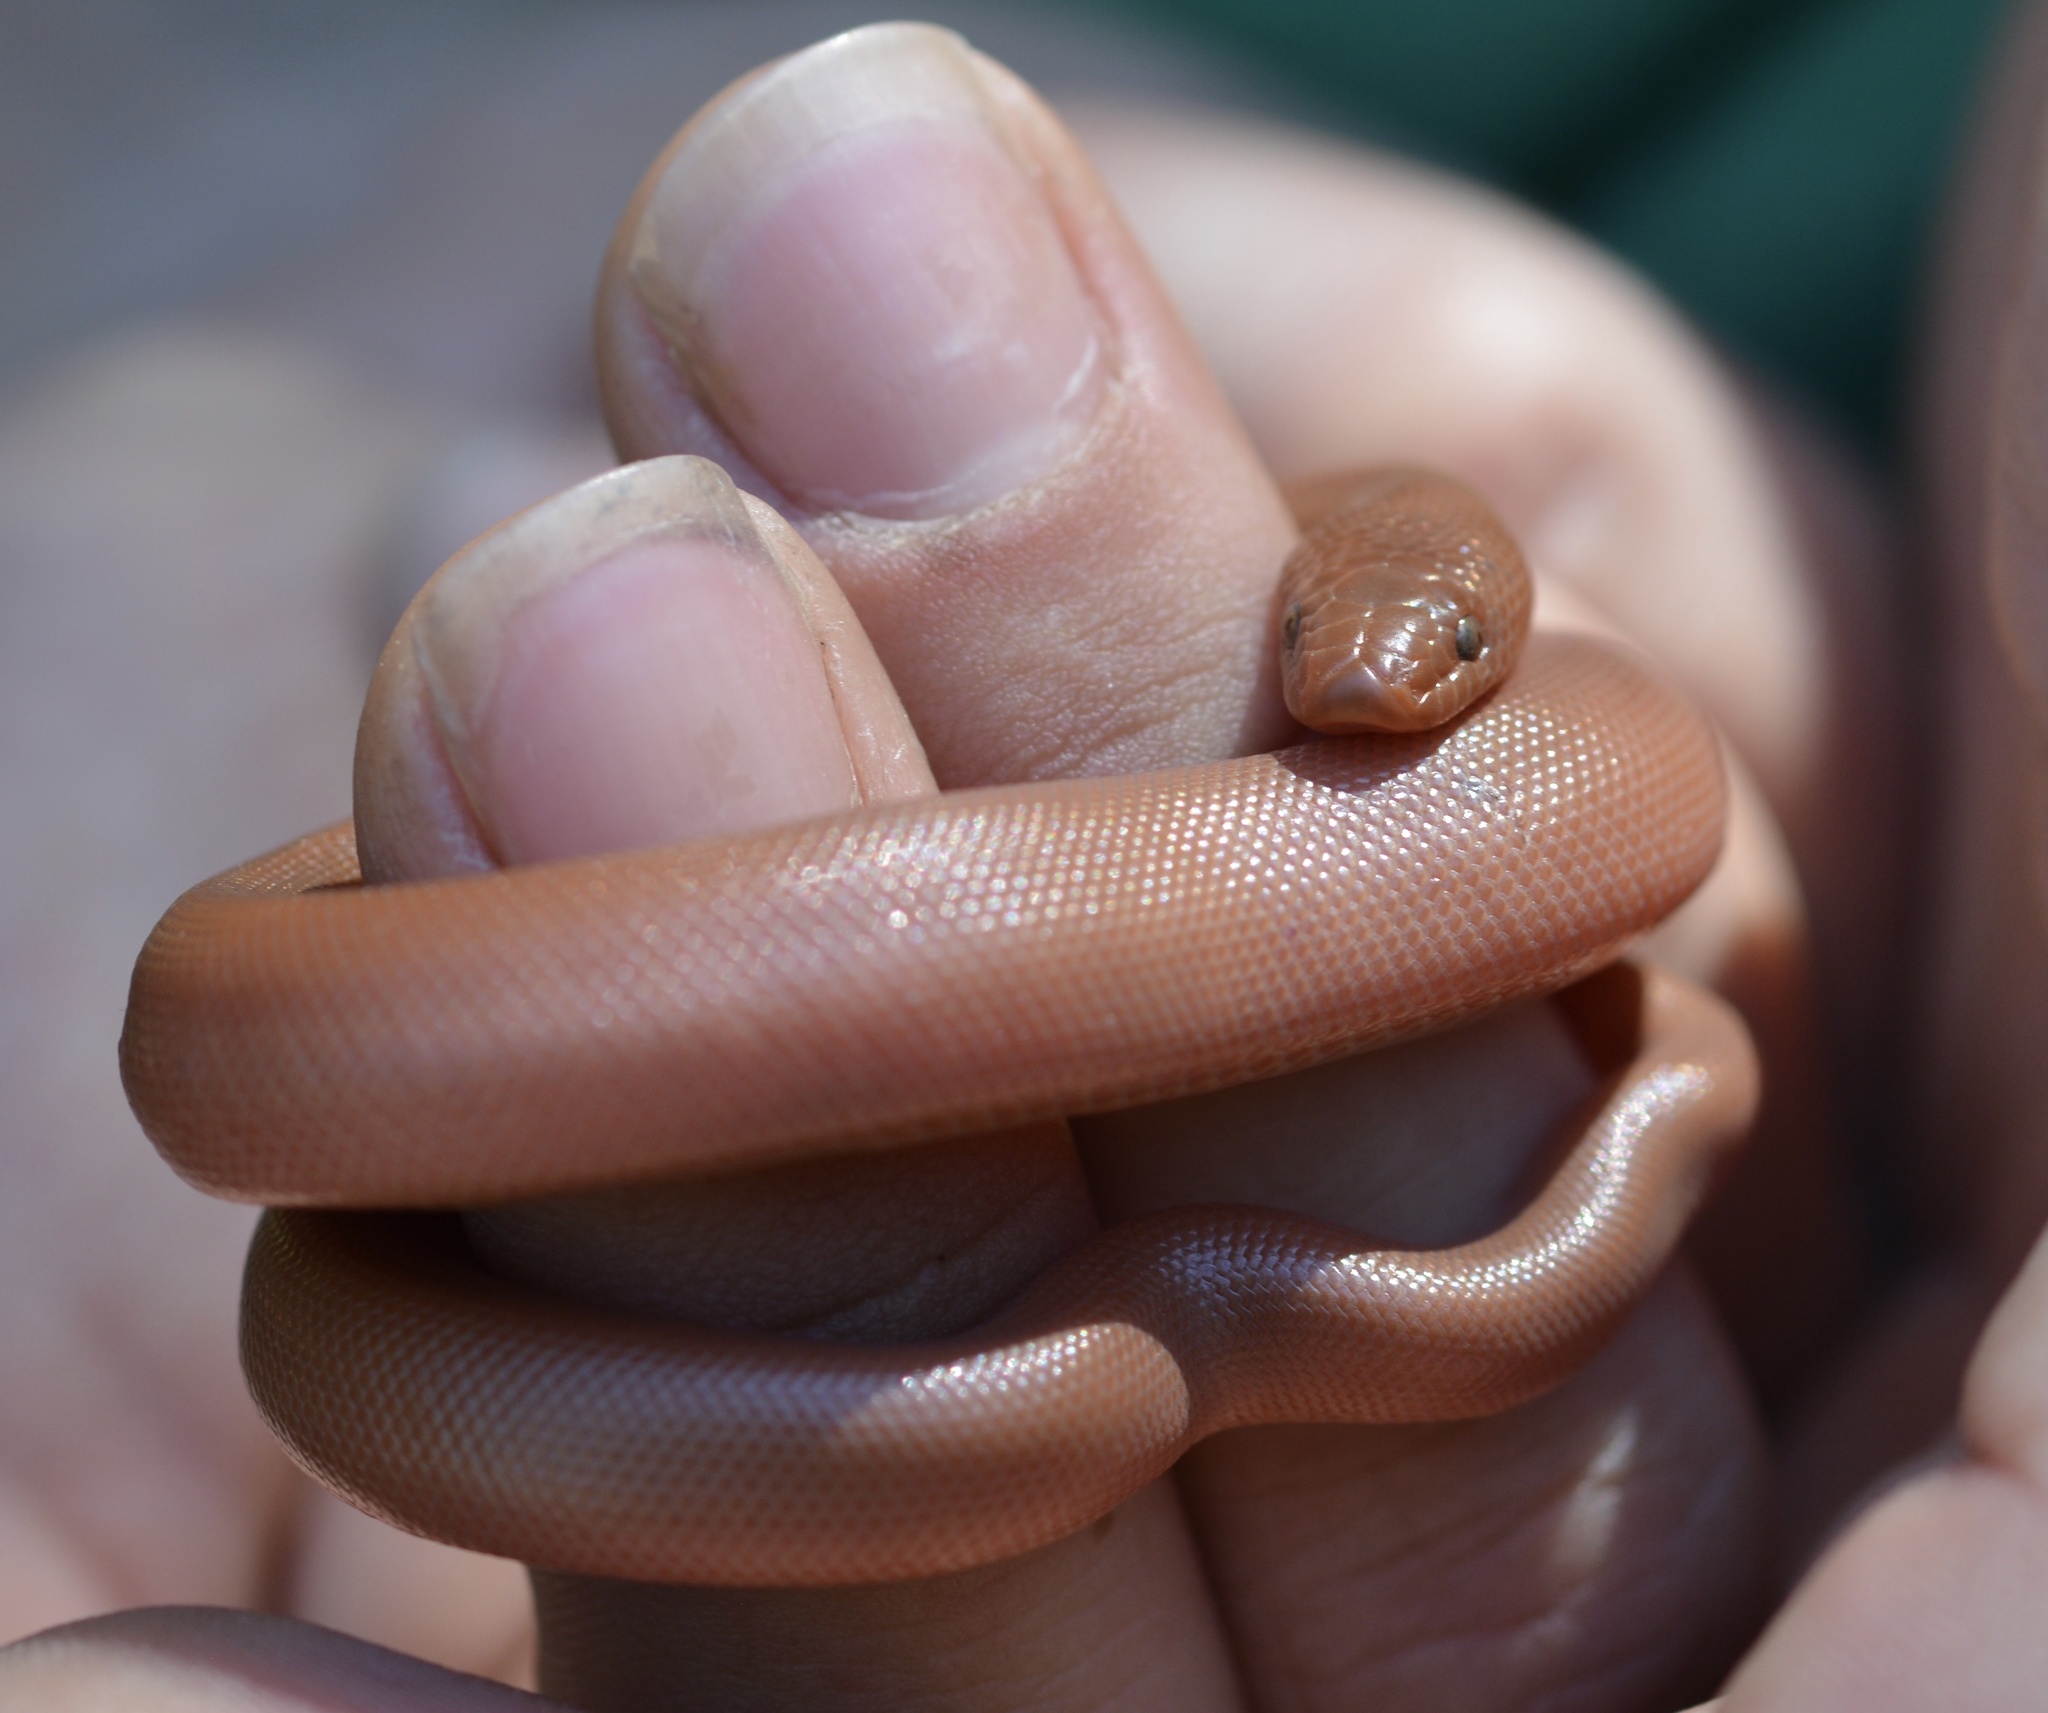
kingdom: Animalia
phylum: Chordata
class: Squamata
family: Boidae
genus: Charina
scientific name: Charina bottae
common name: Northern rubber boa
